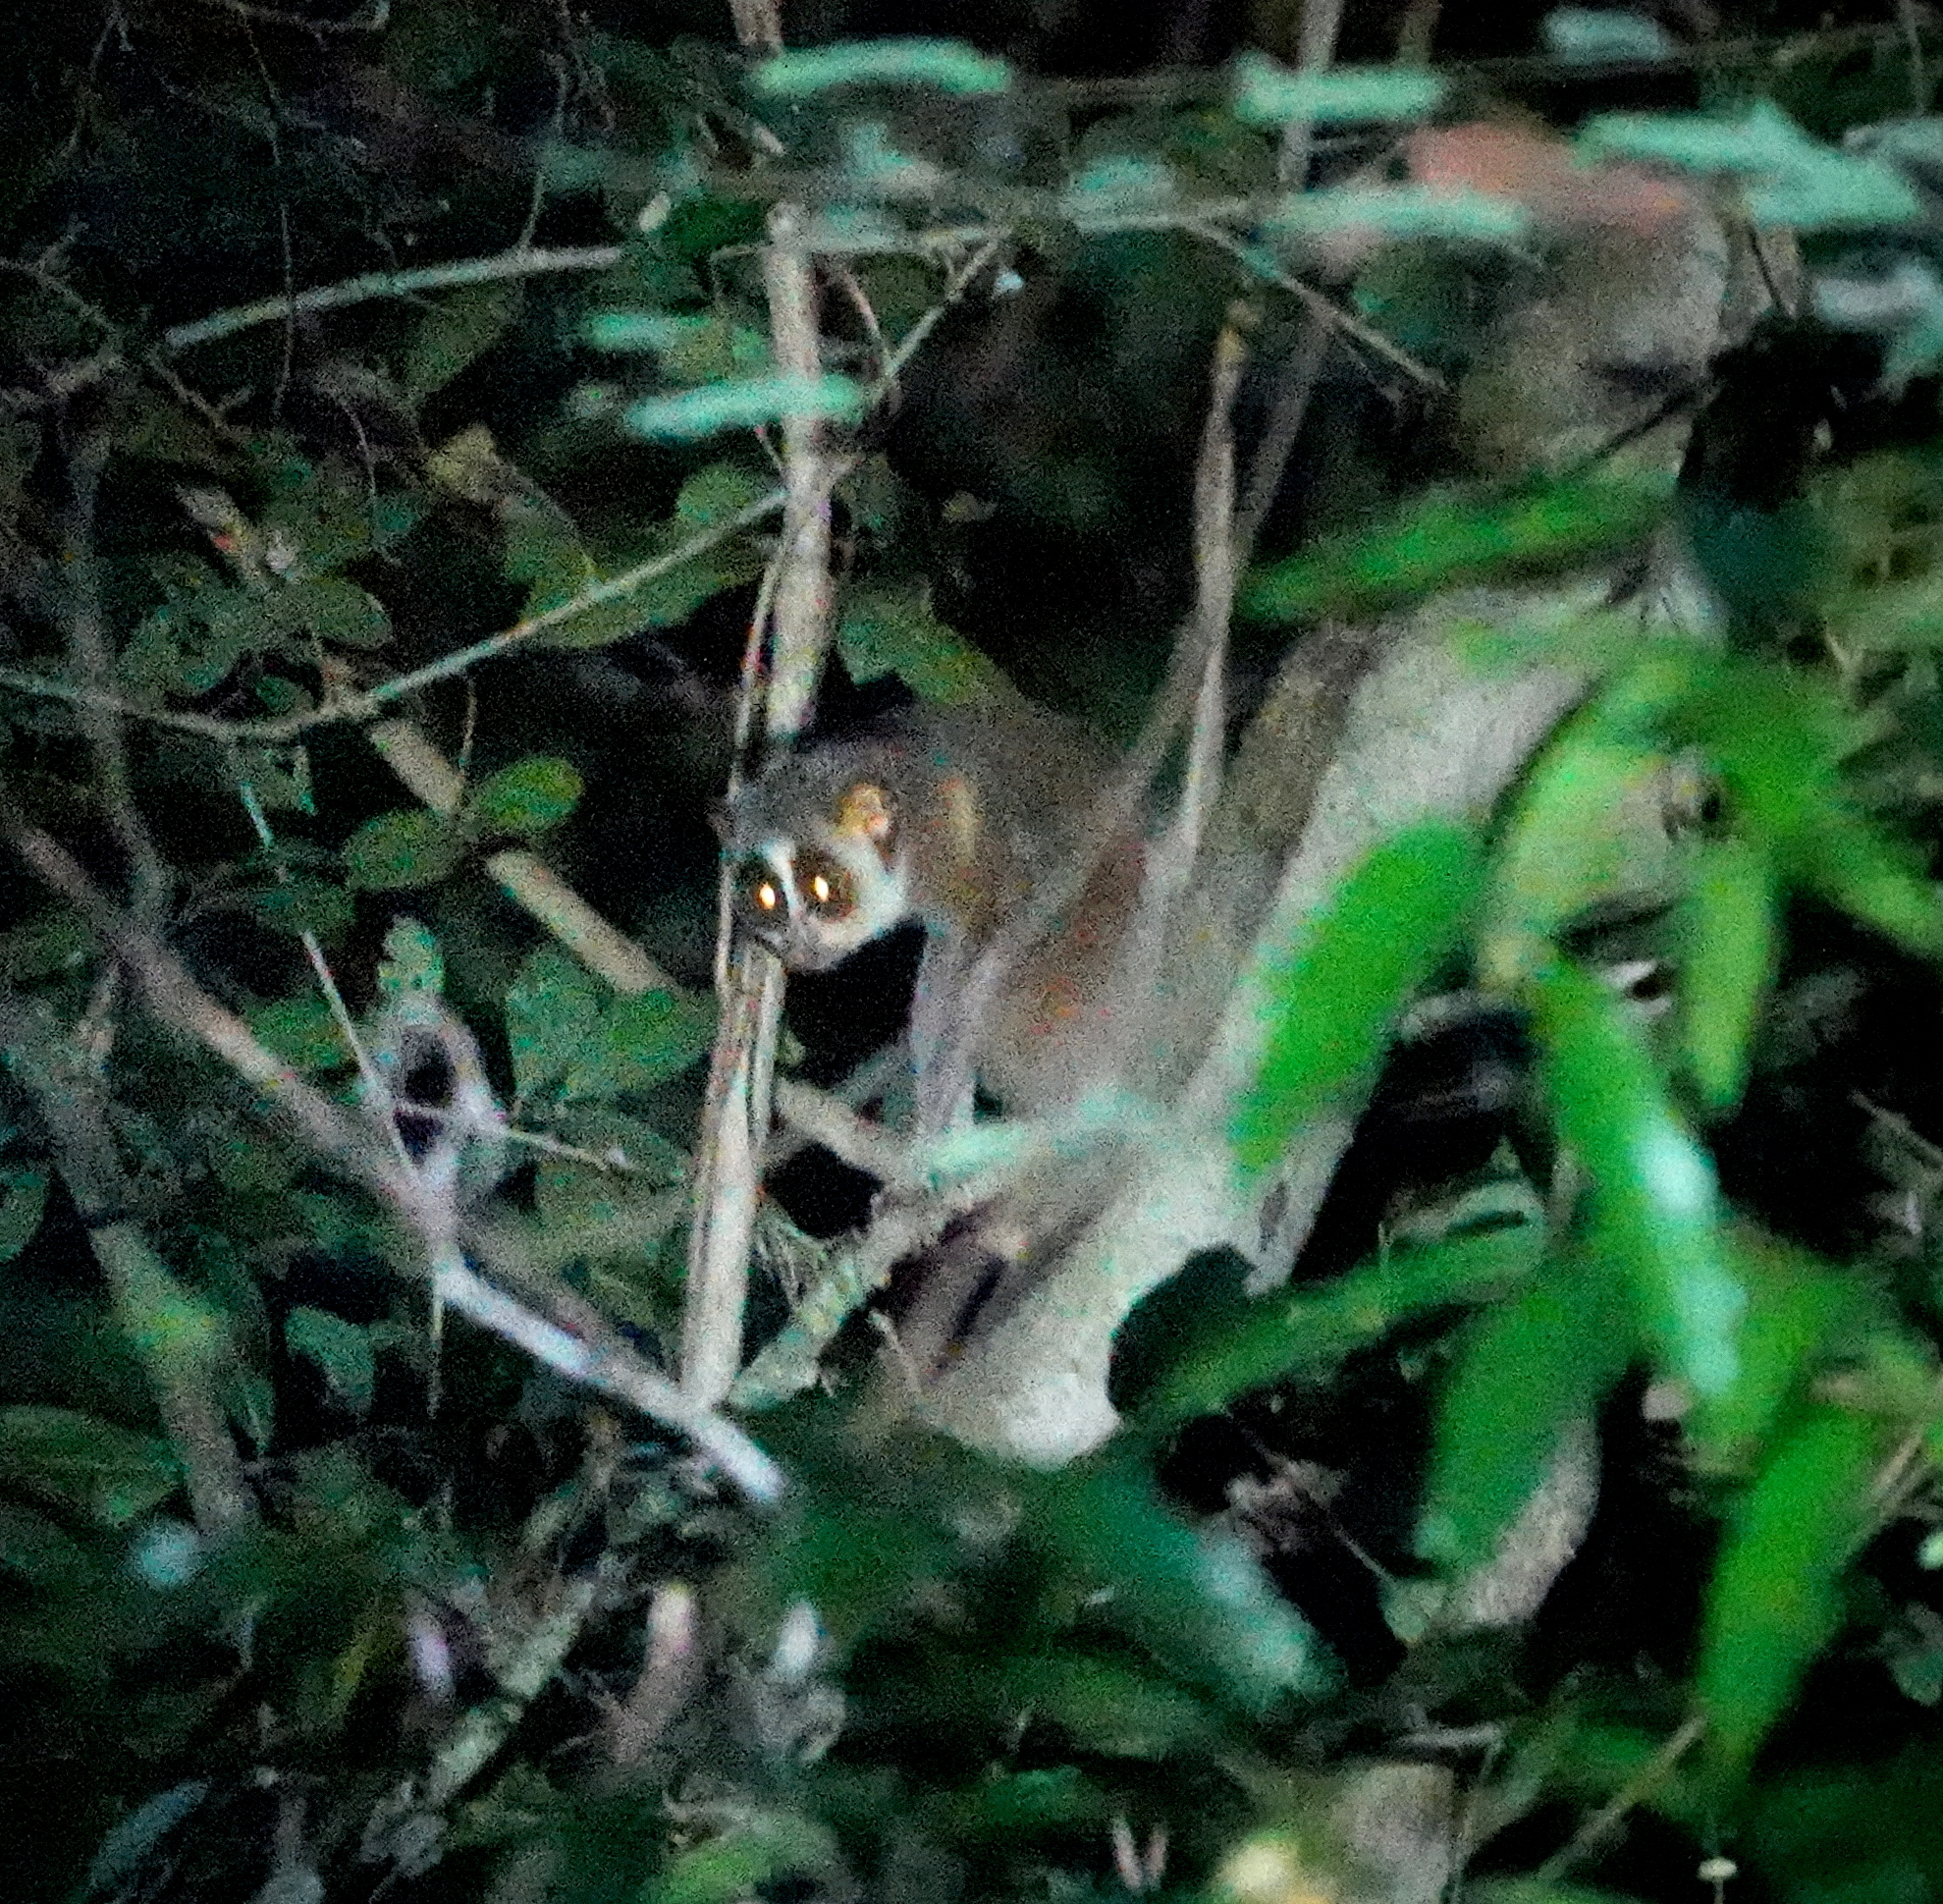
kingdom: Animalia
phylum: Chordata
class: Mammalia
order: Primates
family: Lorisidae
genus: Loris
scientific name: Loris lydekkerianus
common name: Gray slender loris
